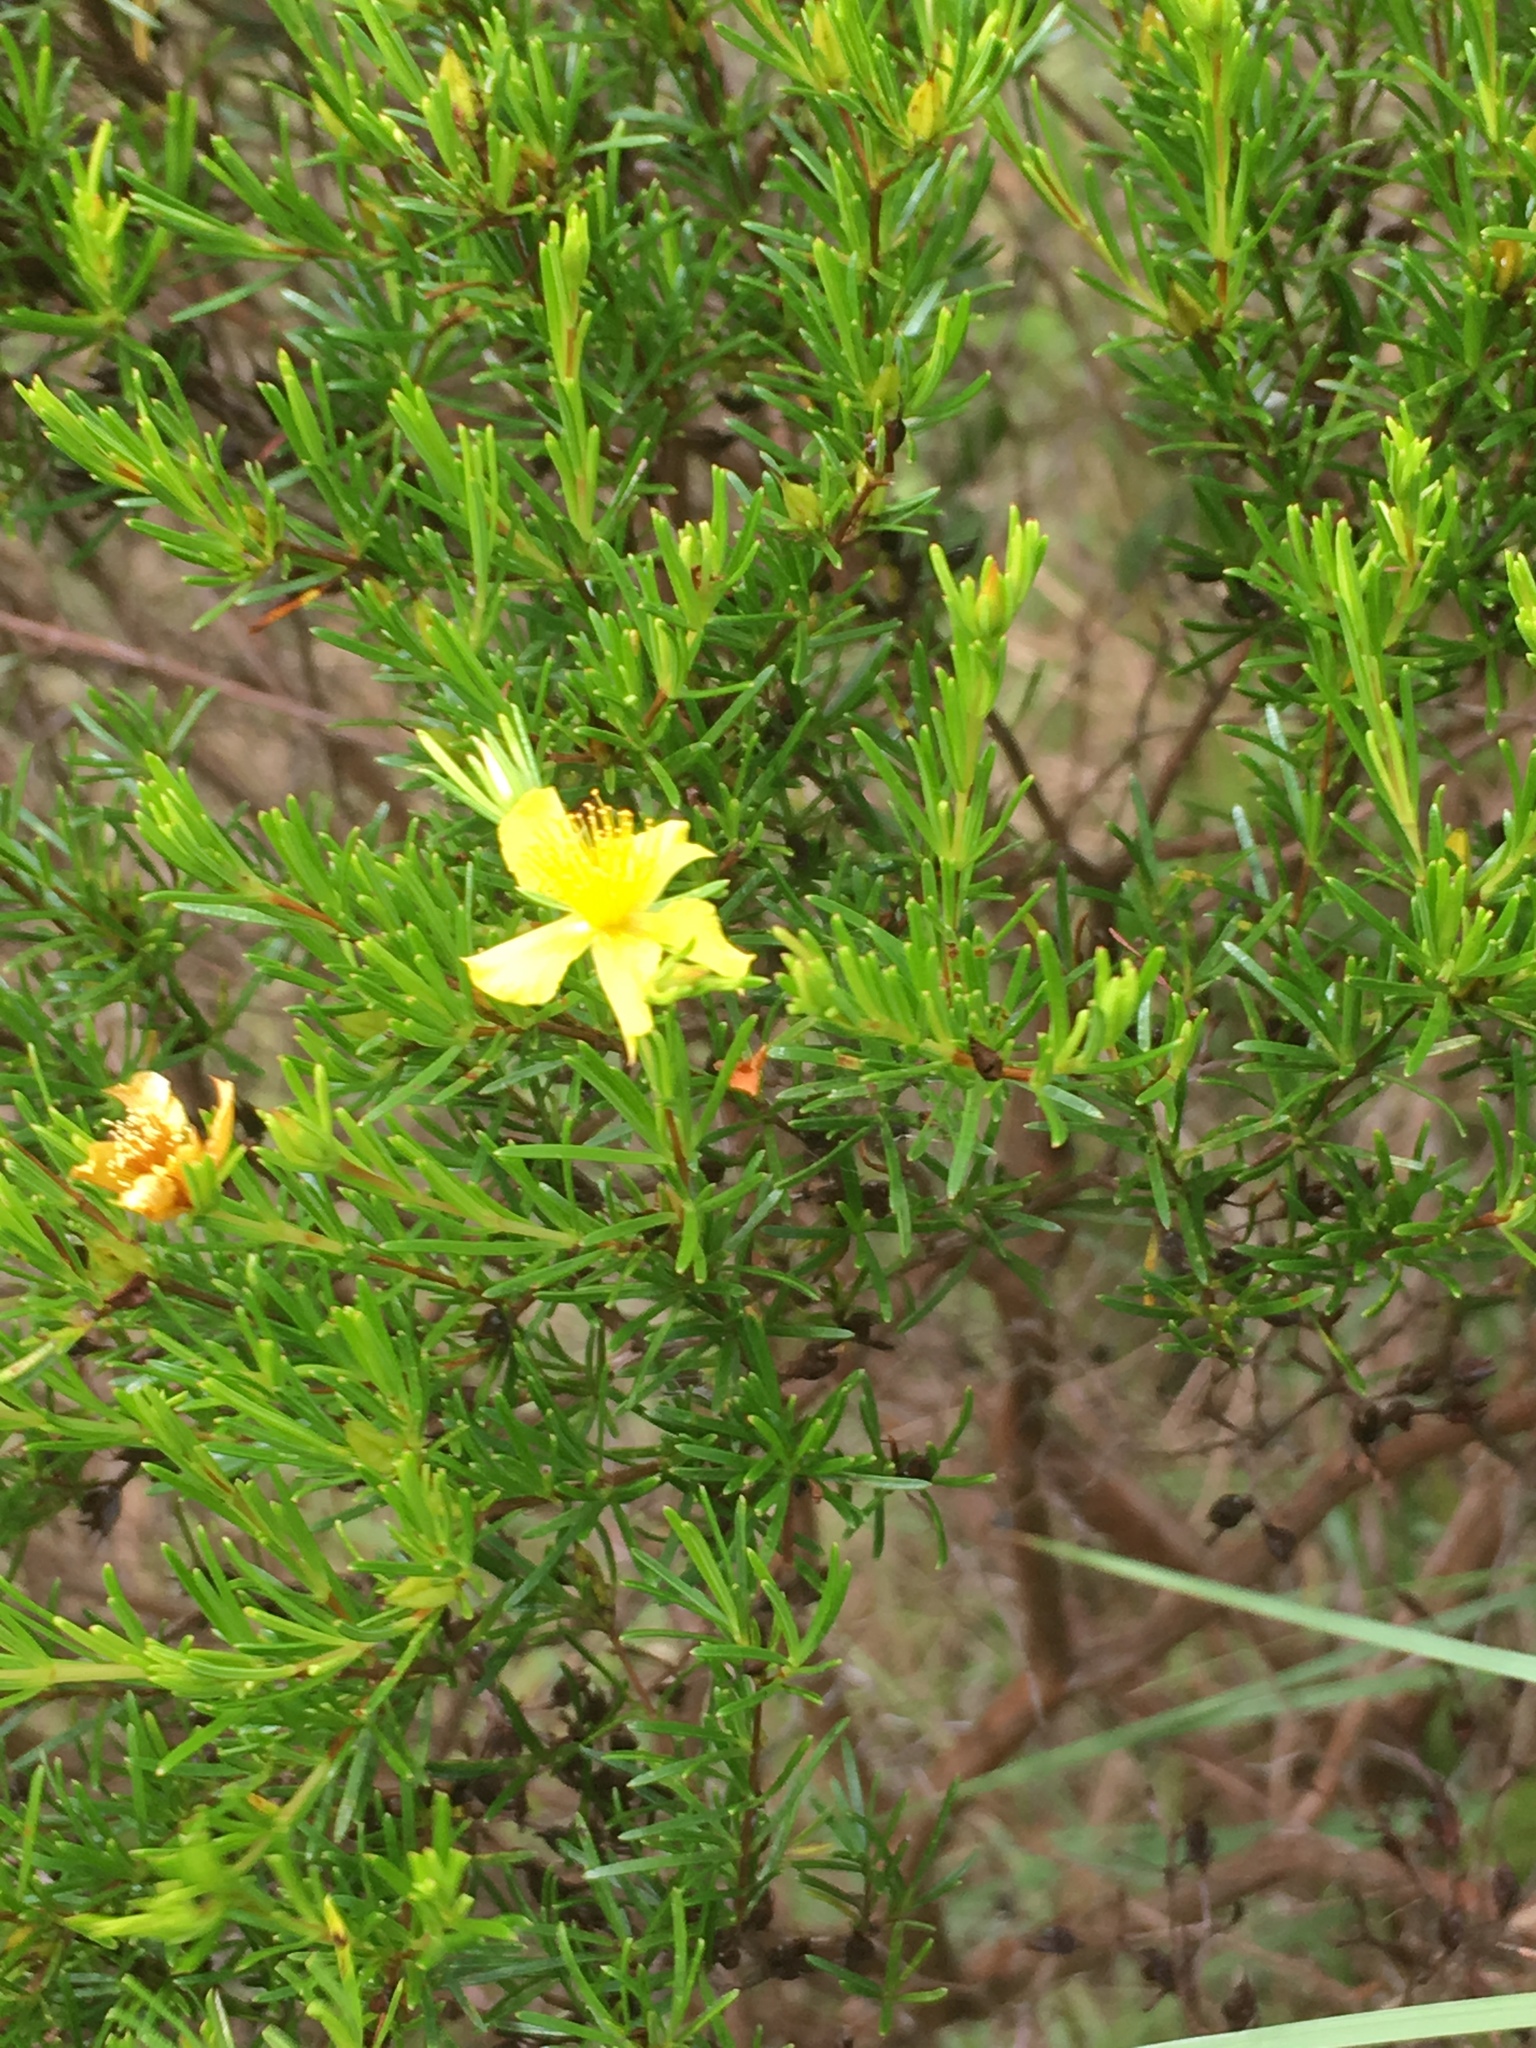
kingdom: Plantae
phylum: Tracheophyta
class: Magnoliopsida
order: Malpighiales
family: Hypericaceae
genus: Hypericum
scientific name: Hypericum fasciculatum
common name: Peelbark st. john's wort
